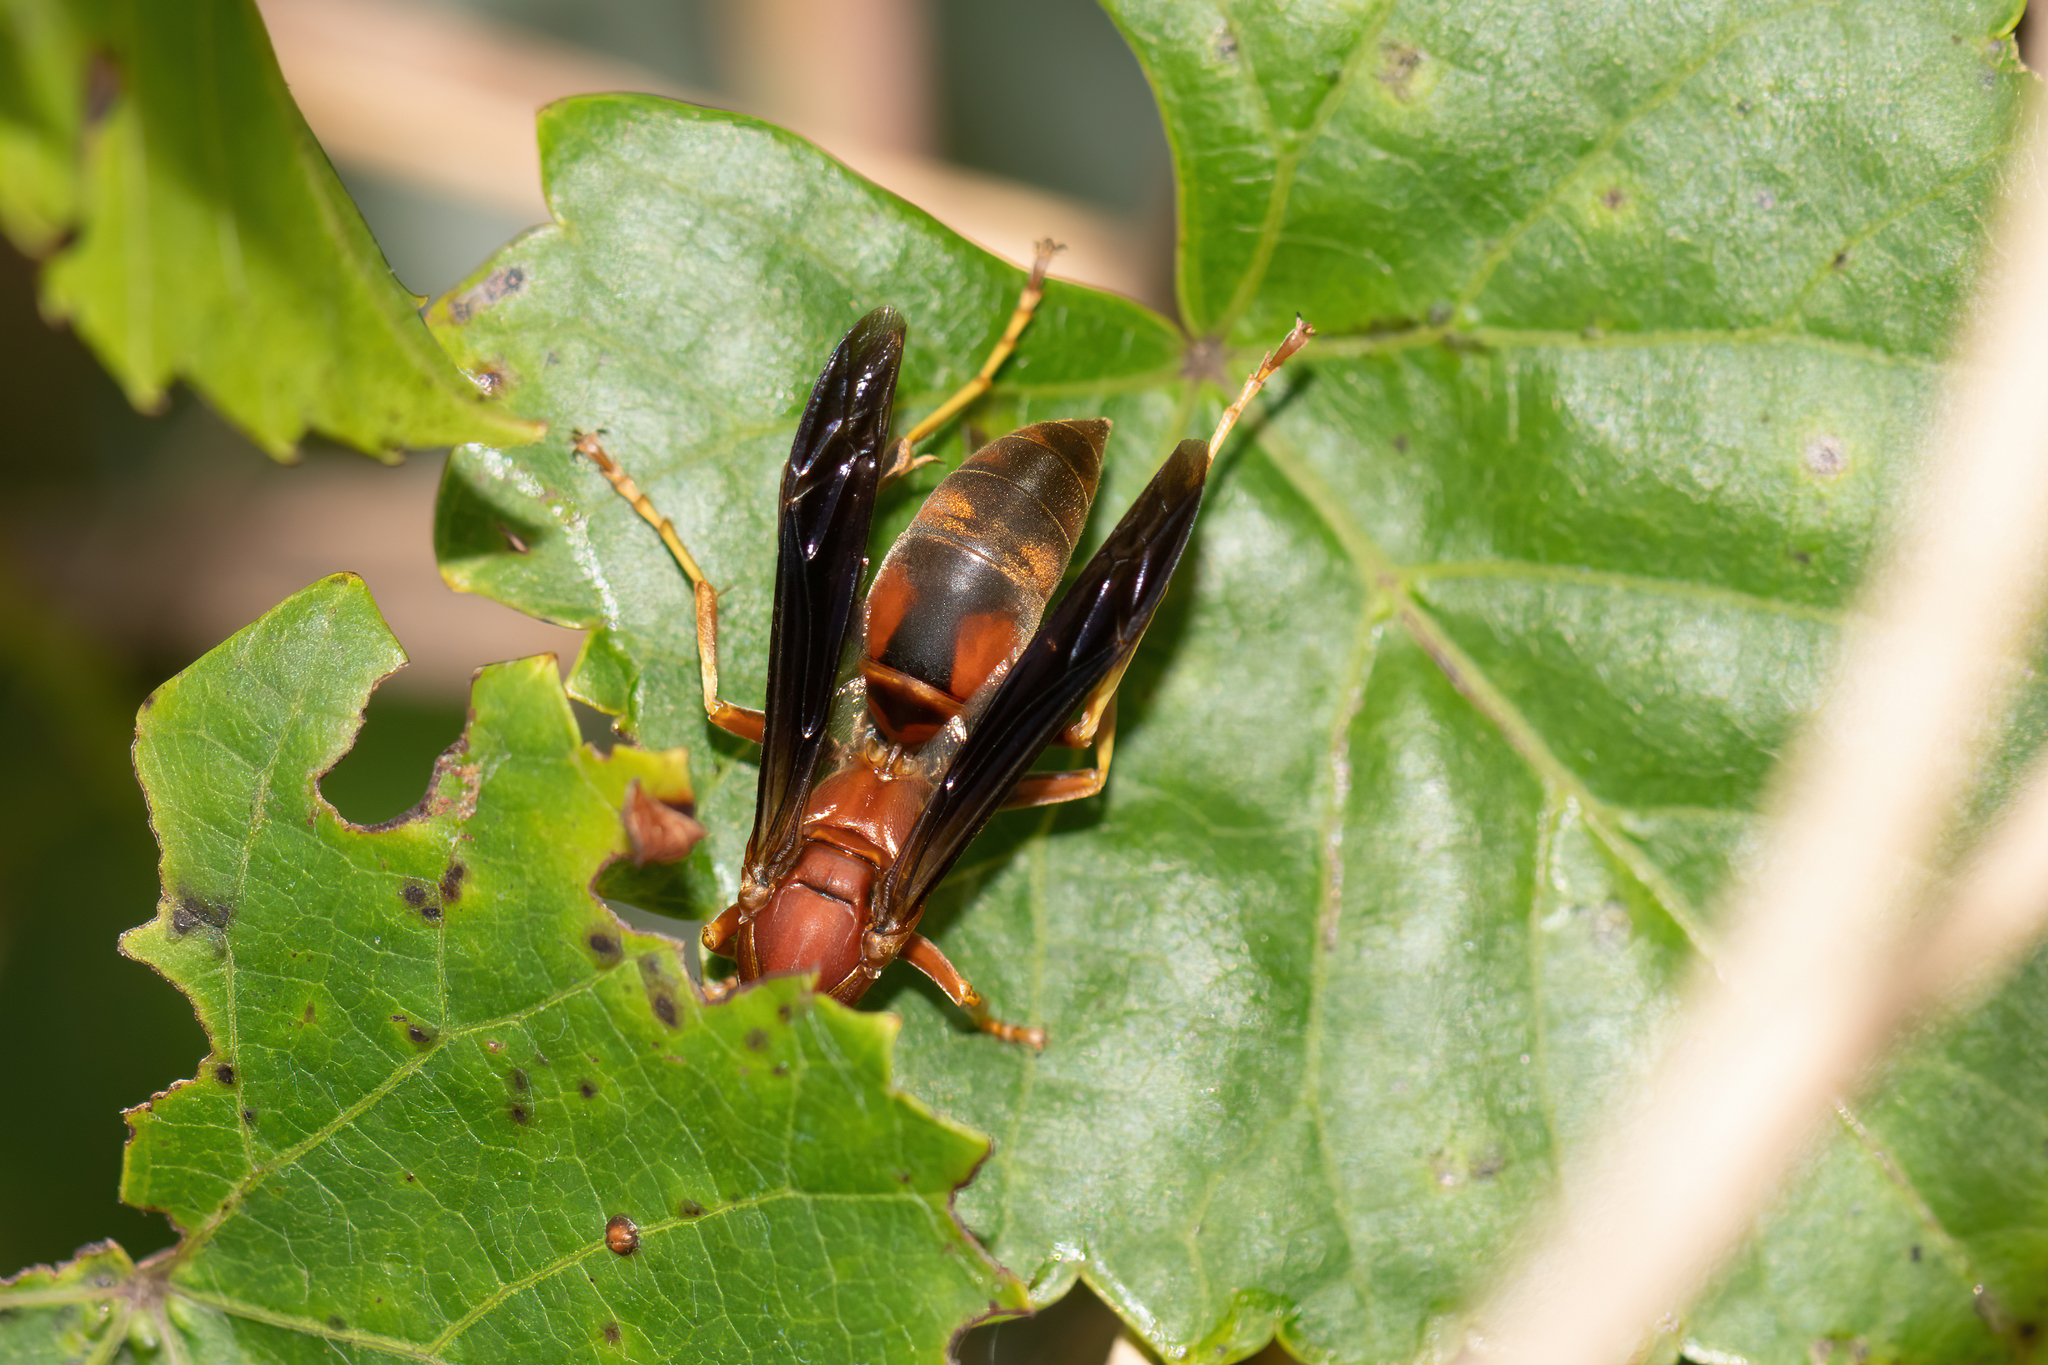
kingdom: Animalia
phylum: Arthropoda
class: Insecta
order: Hymenoptera
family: Eumenidae
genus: Polistes
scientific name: Polistes fuscatus
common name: Dark paper wasp
